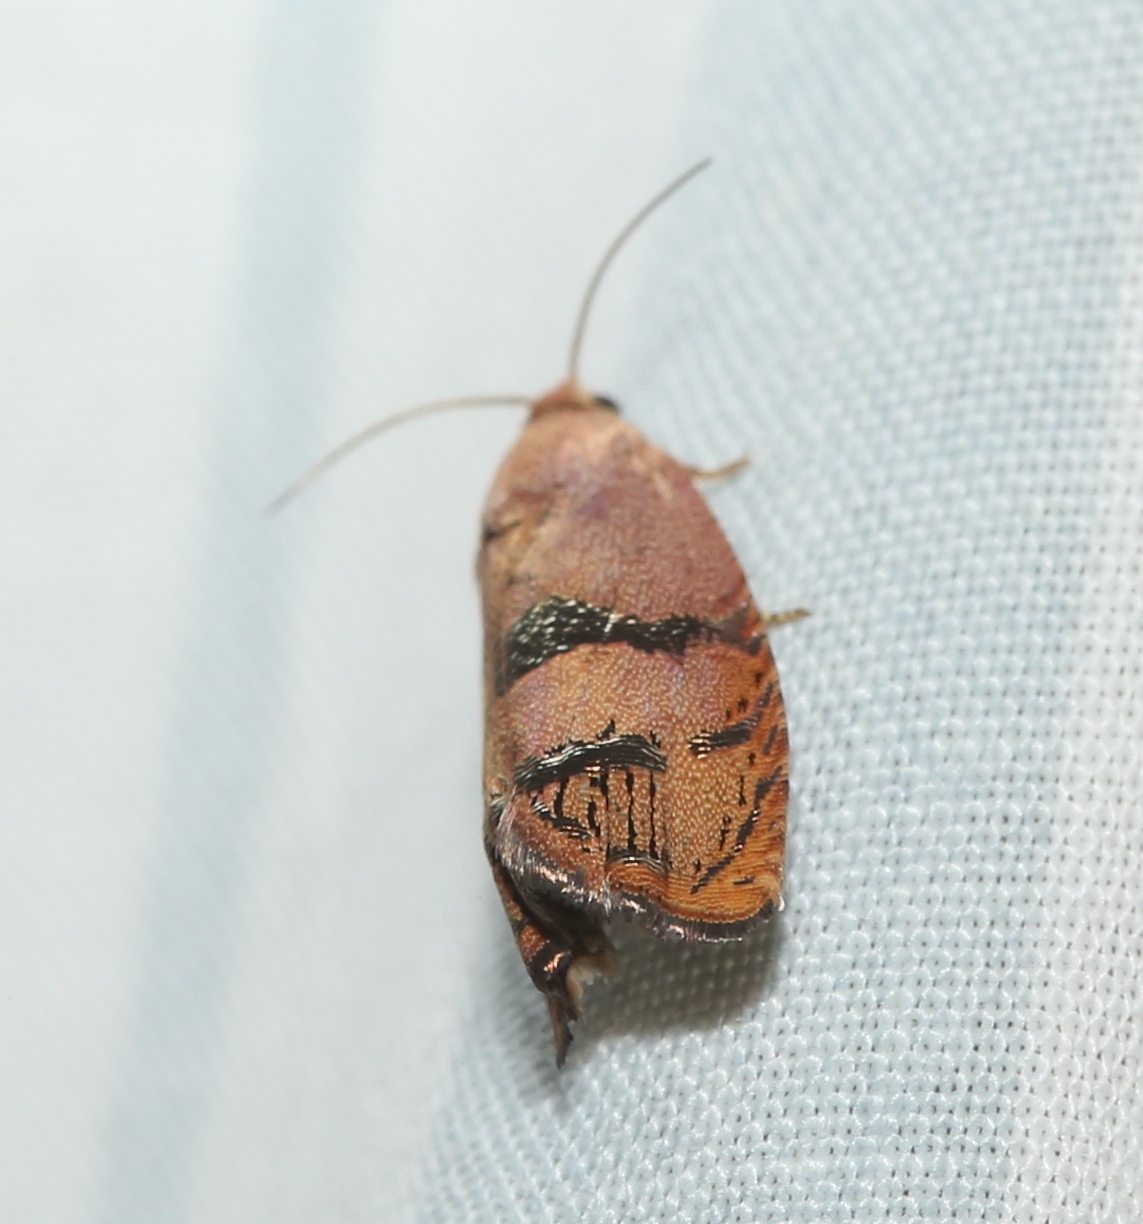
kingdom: Animalia
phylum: Arthropoda
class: Insecta
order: Lepidoptera
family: Tortricidae
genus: Cydia
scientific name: Cydia latiferreana
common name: Filbertworm moth
